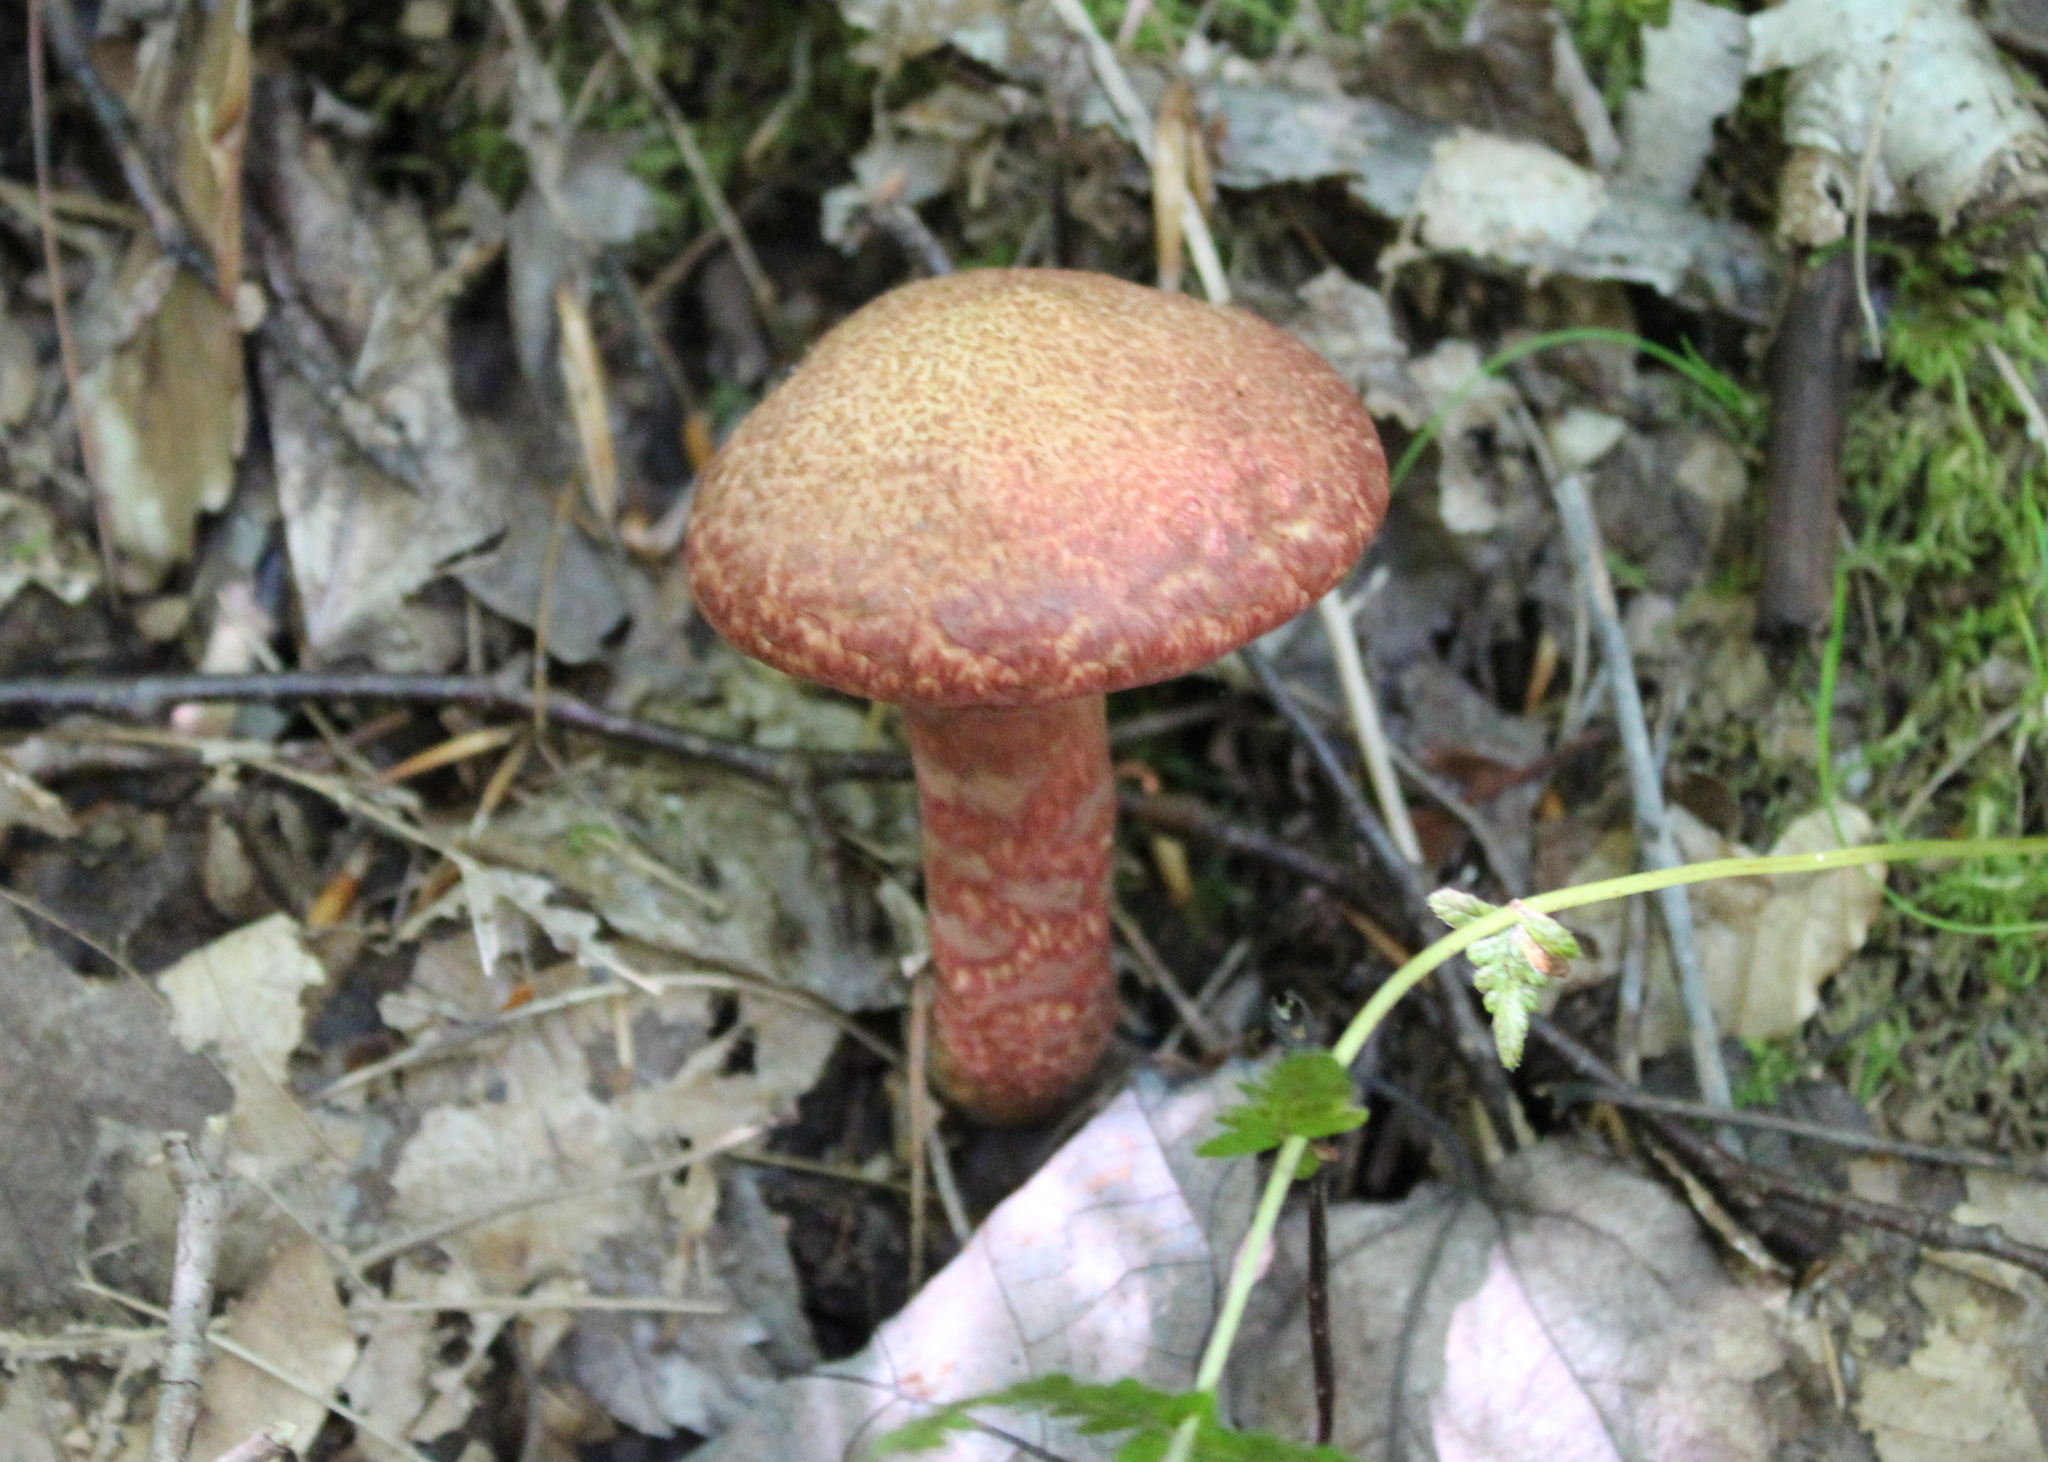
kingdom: Fungi
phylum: Basidiomycota
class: Agaricomycetes
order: Boletales
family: Suillaceae
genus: Suillus
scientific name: Suillus spraguei
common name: Painted suillus
